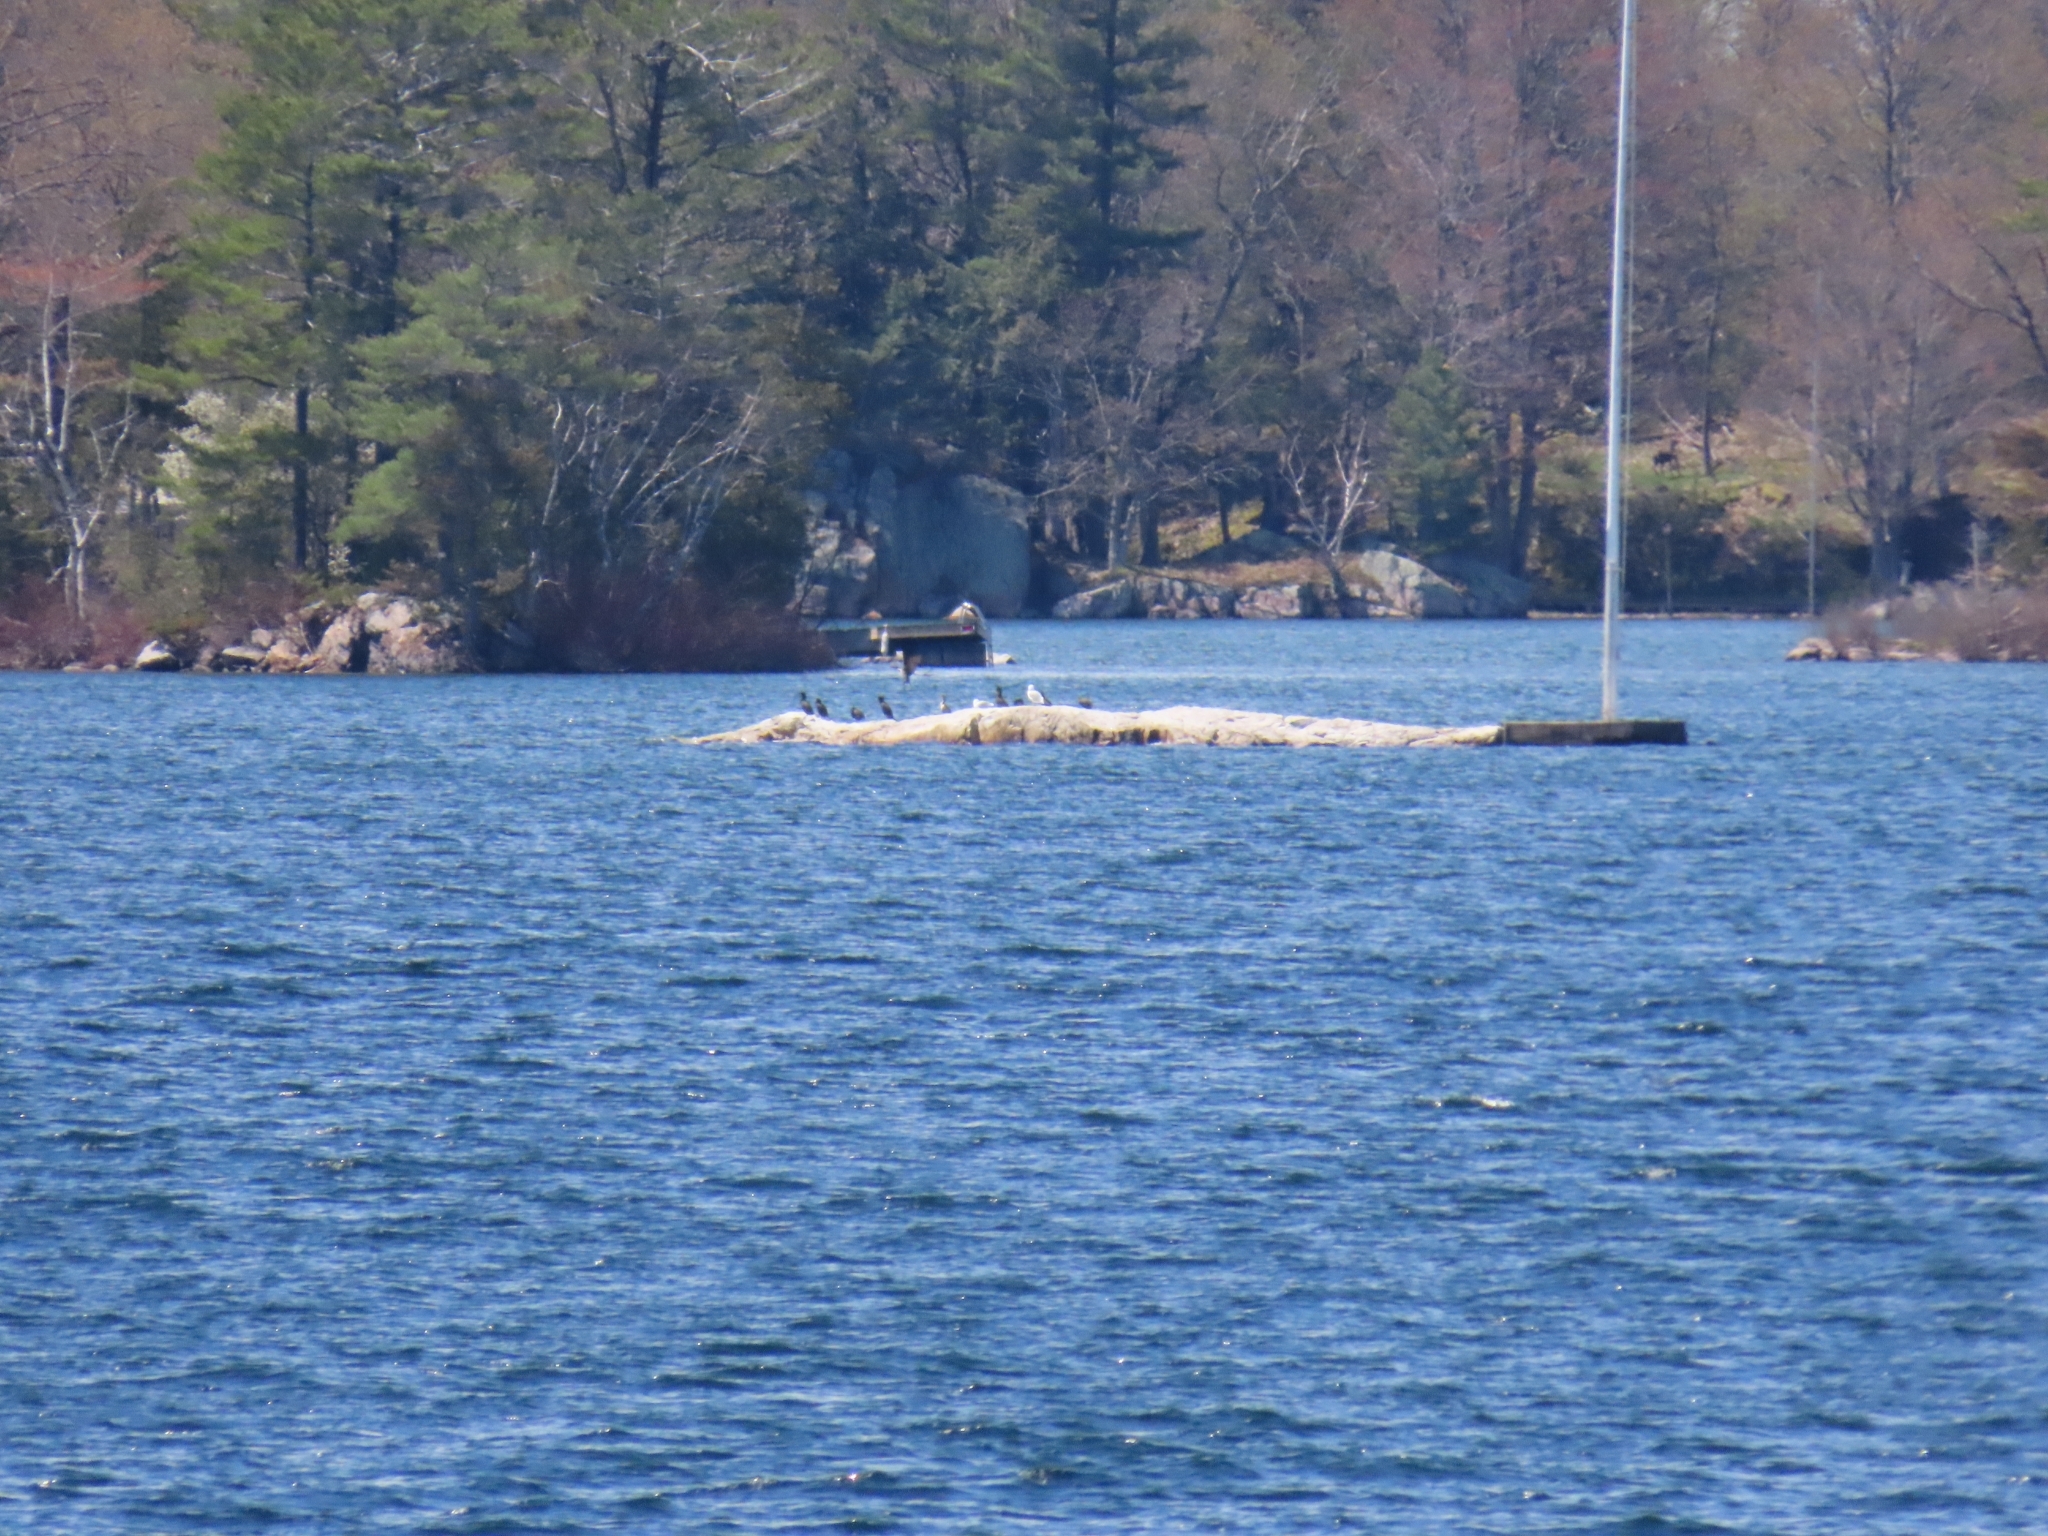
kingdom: Animalia
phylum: Chordata
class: Aves
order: Suliformes
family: Phalacrocoracidae
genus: Phalacrocorax
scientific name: Phalacrocorax auritus
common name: Double-crested cormorant
